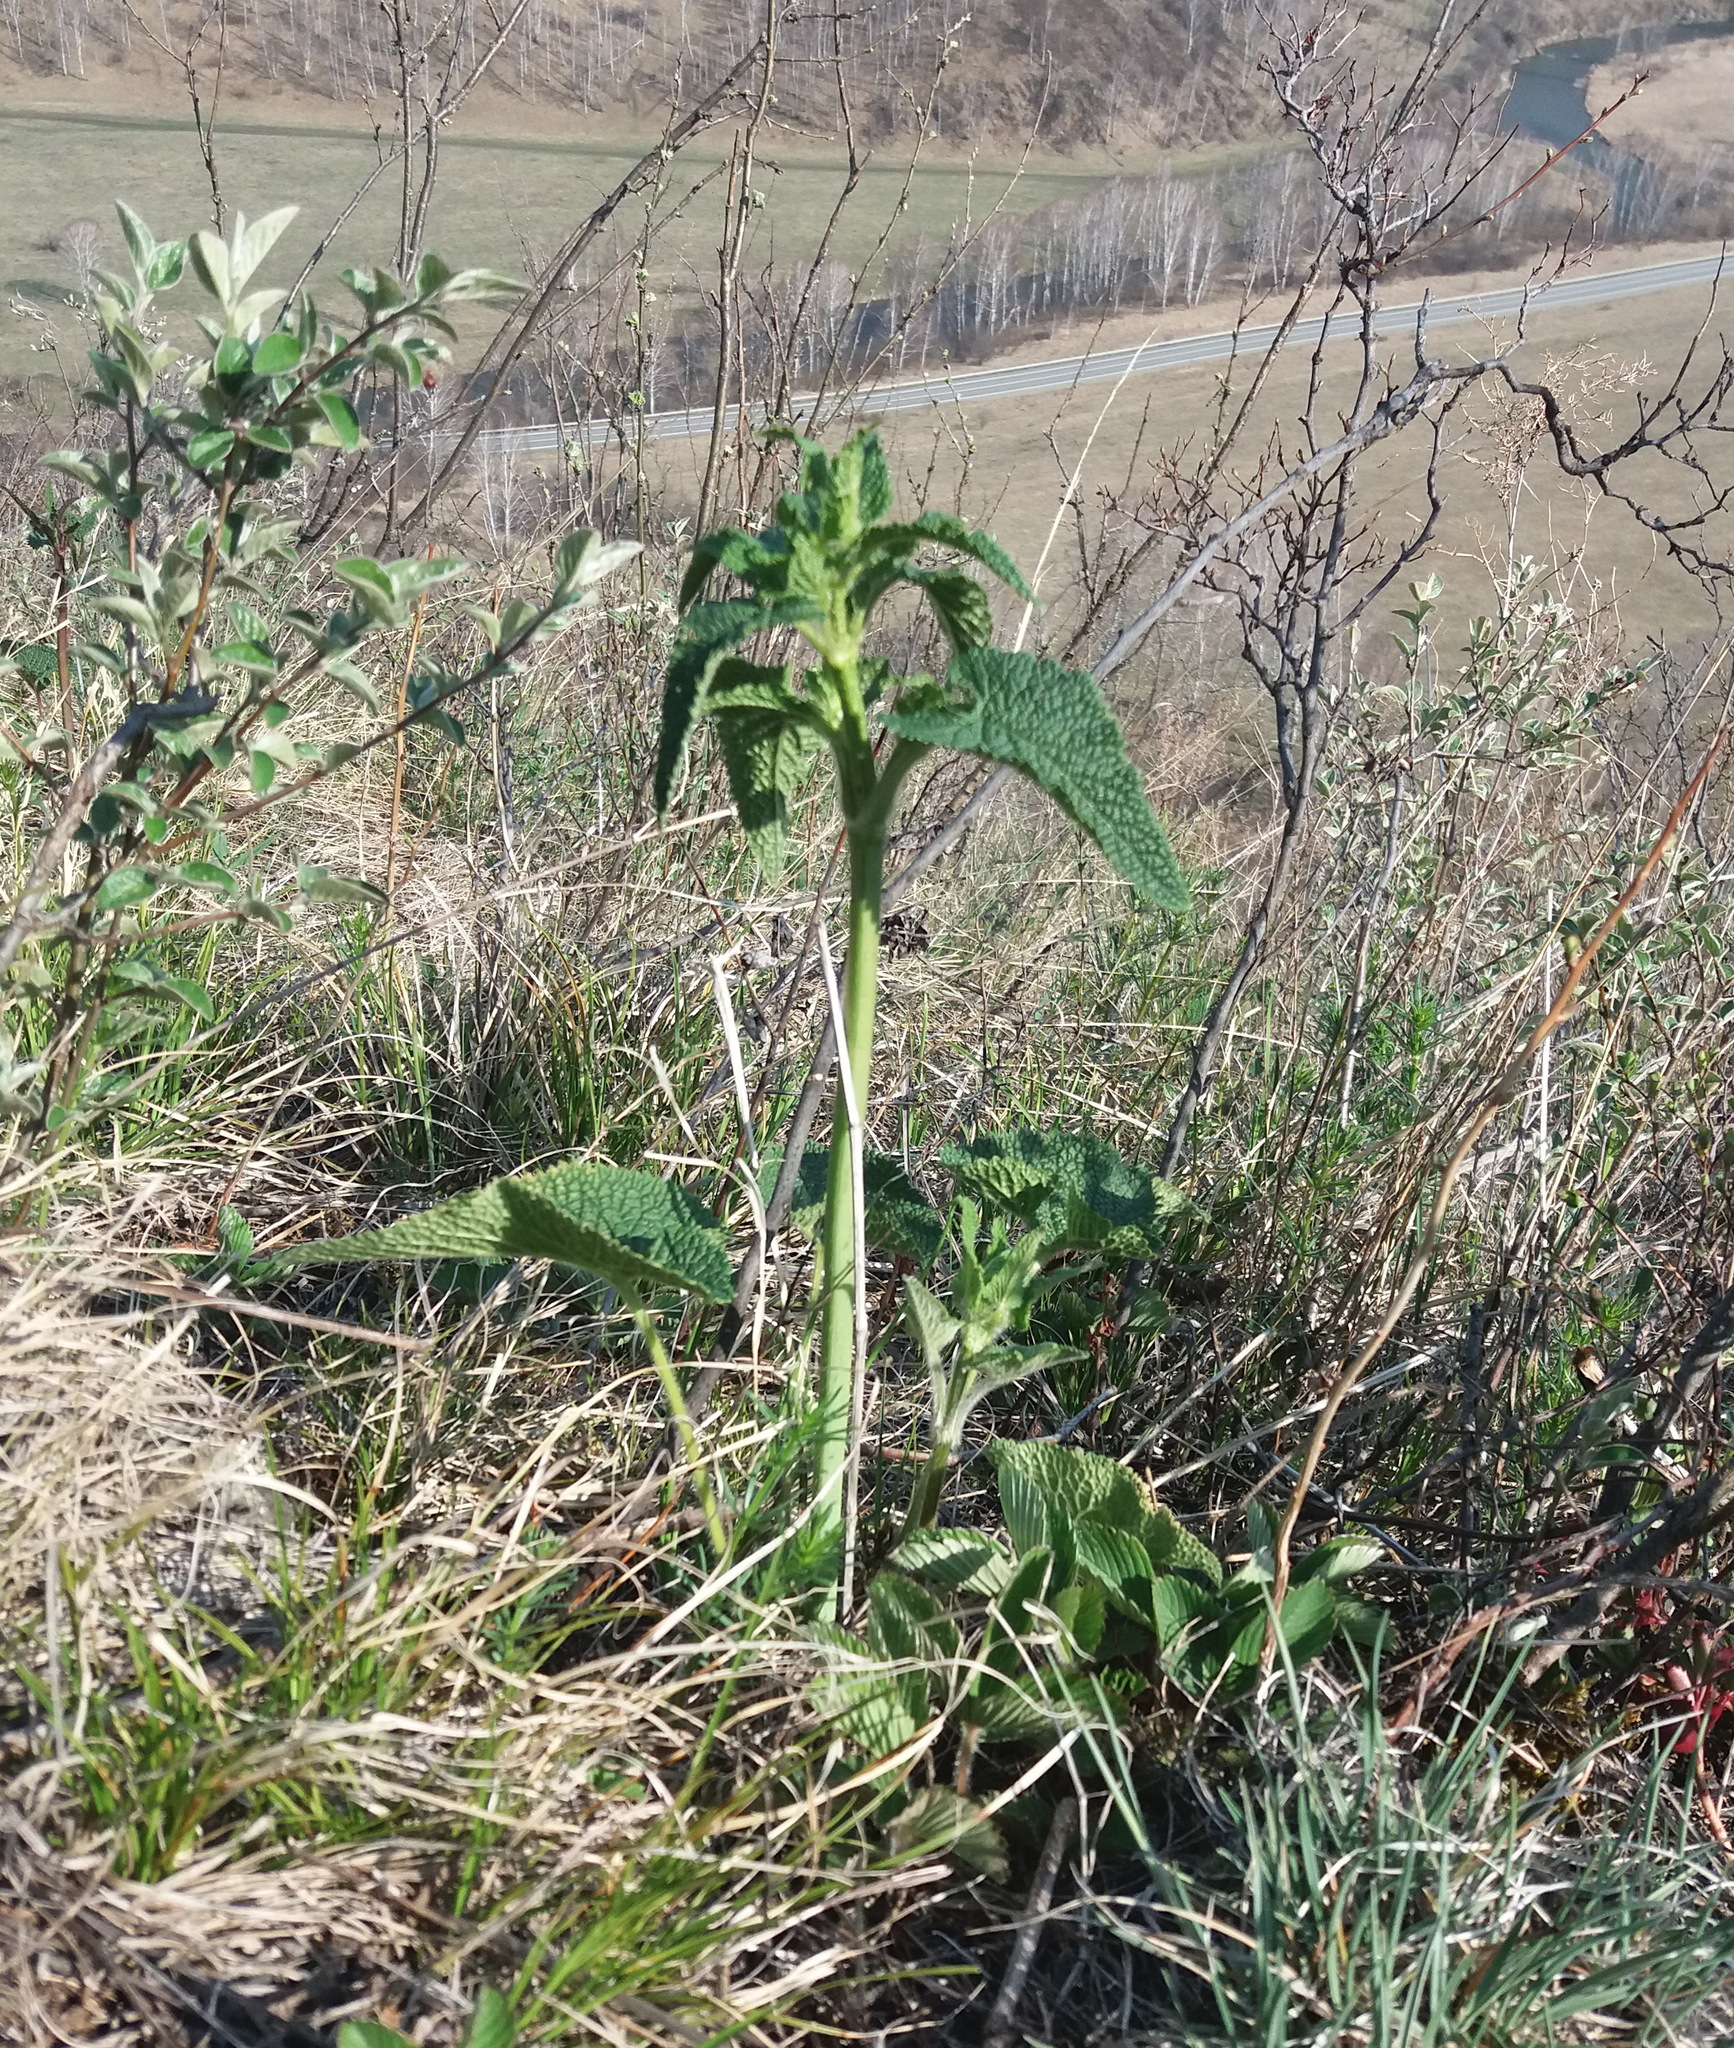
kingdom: Plantae
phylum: Tracheophyta
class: Magnoliopsida
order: Lamiales
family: Lamiaceae
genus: Phlomoides
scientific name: Phlomoides tuberosa
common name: Tuberous jerusalem sage
